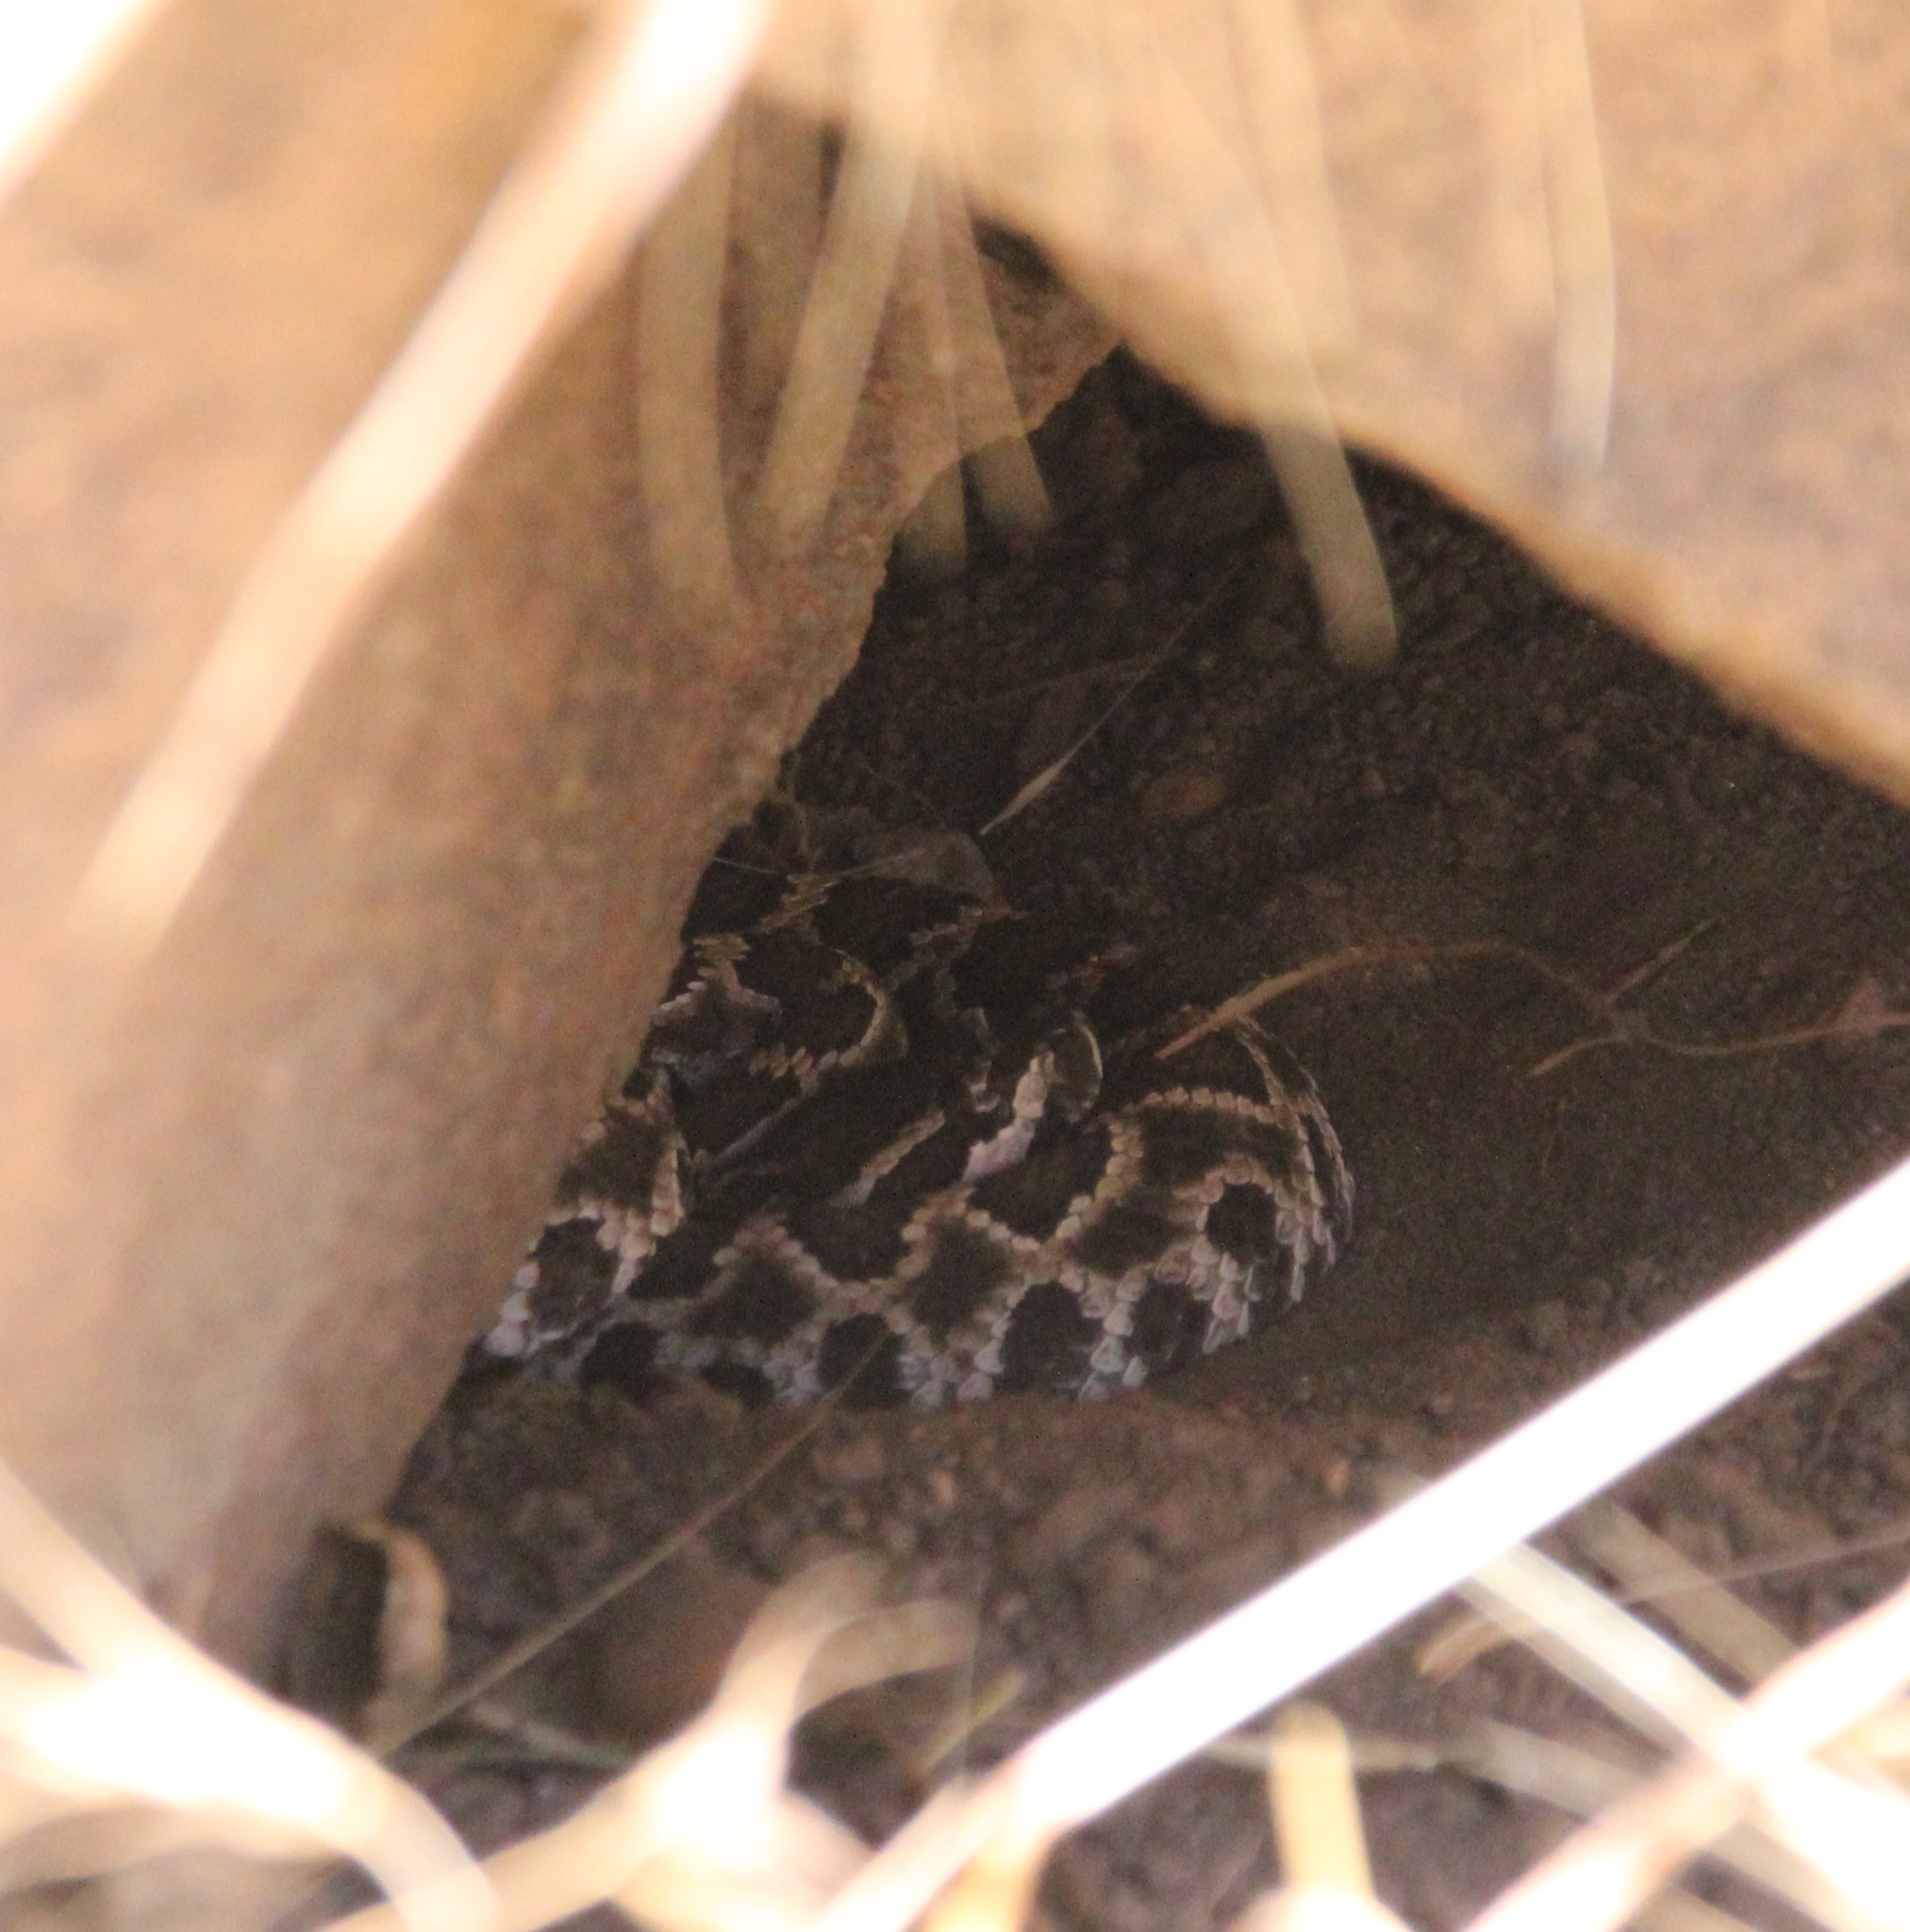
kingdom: Animalia
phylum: Chordata
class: Squamata
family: Viperidae
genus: Crotalus
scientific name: Crotalus oreganus
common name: Abyssus
